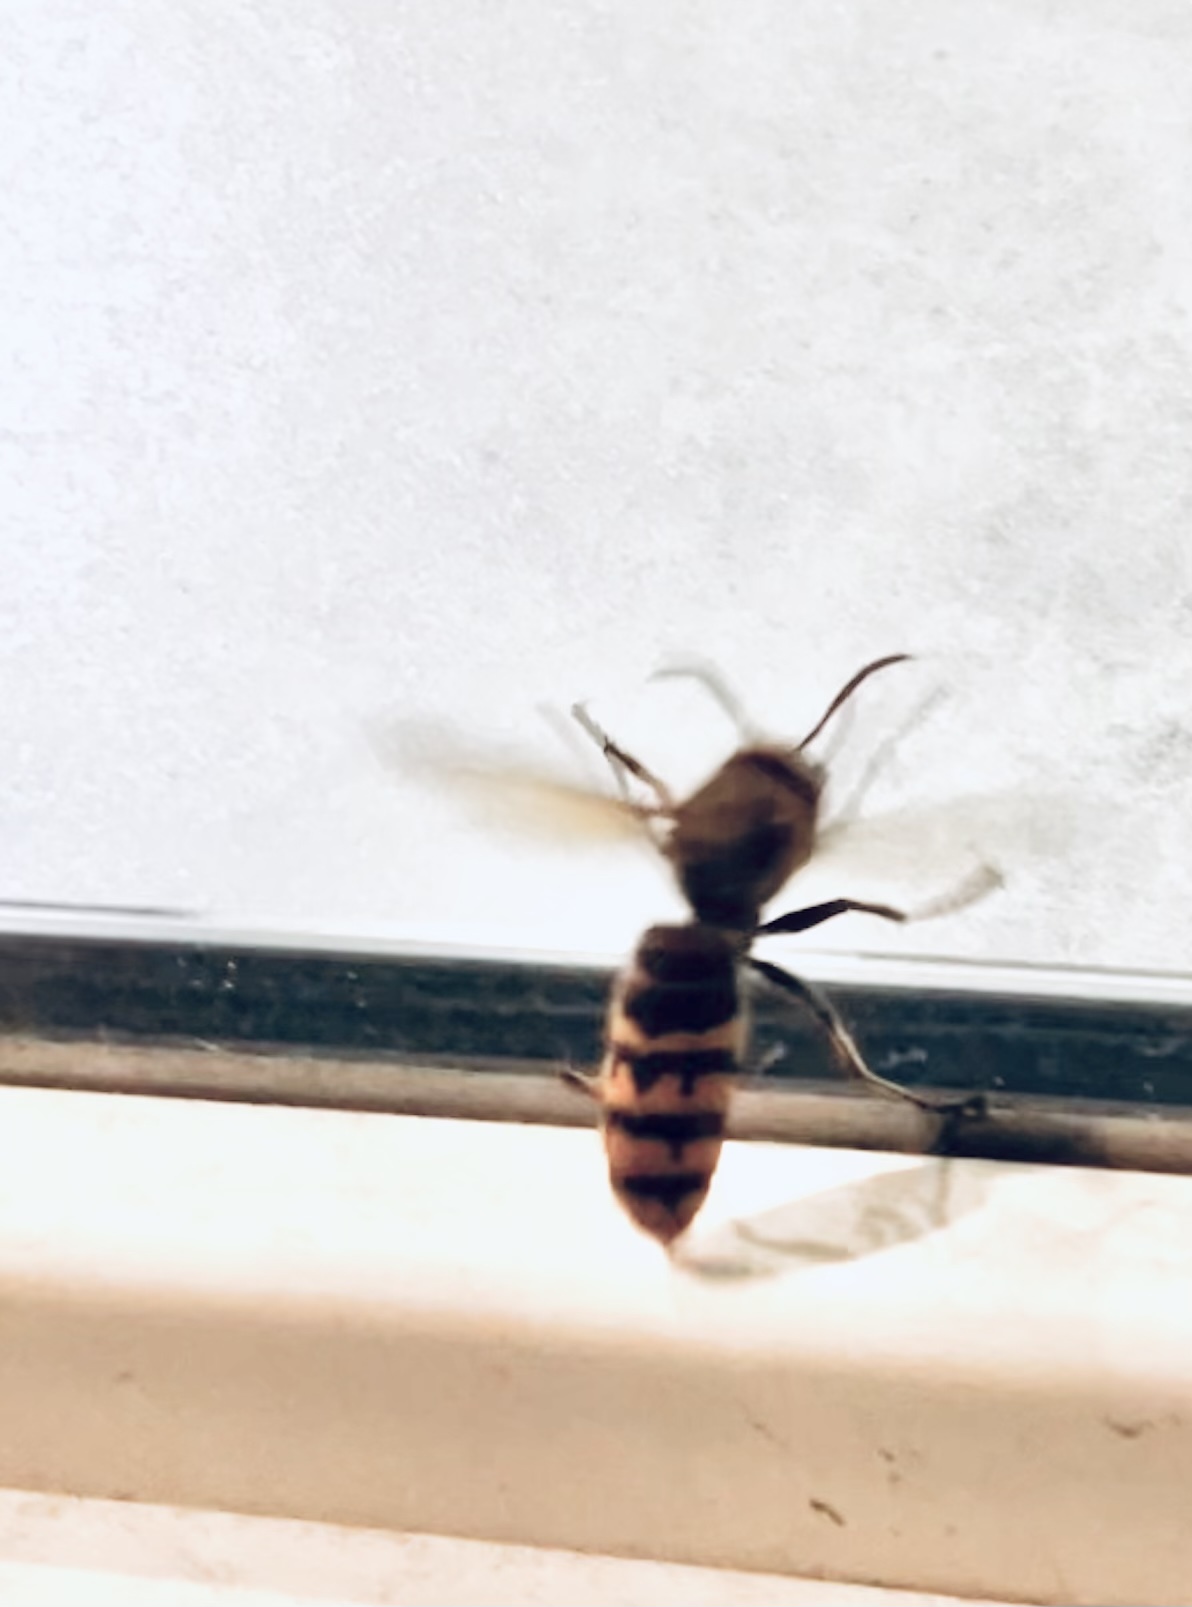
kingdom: Animalia
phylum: Arthropoda
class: Insecta
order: Hymenoptera
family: Vespidae
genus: Vespa
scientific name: Vespa crabro
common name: Hornet
